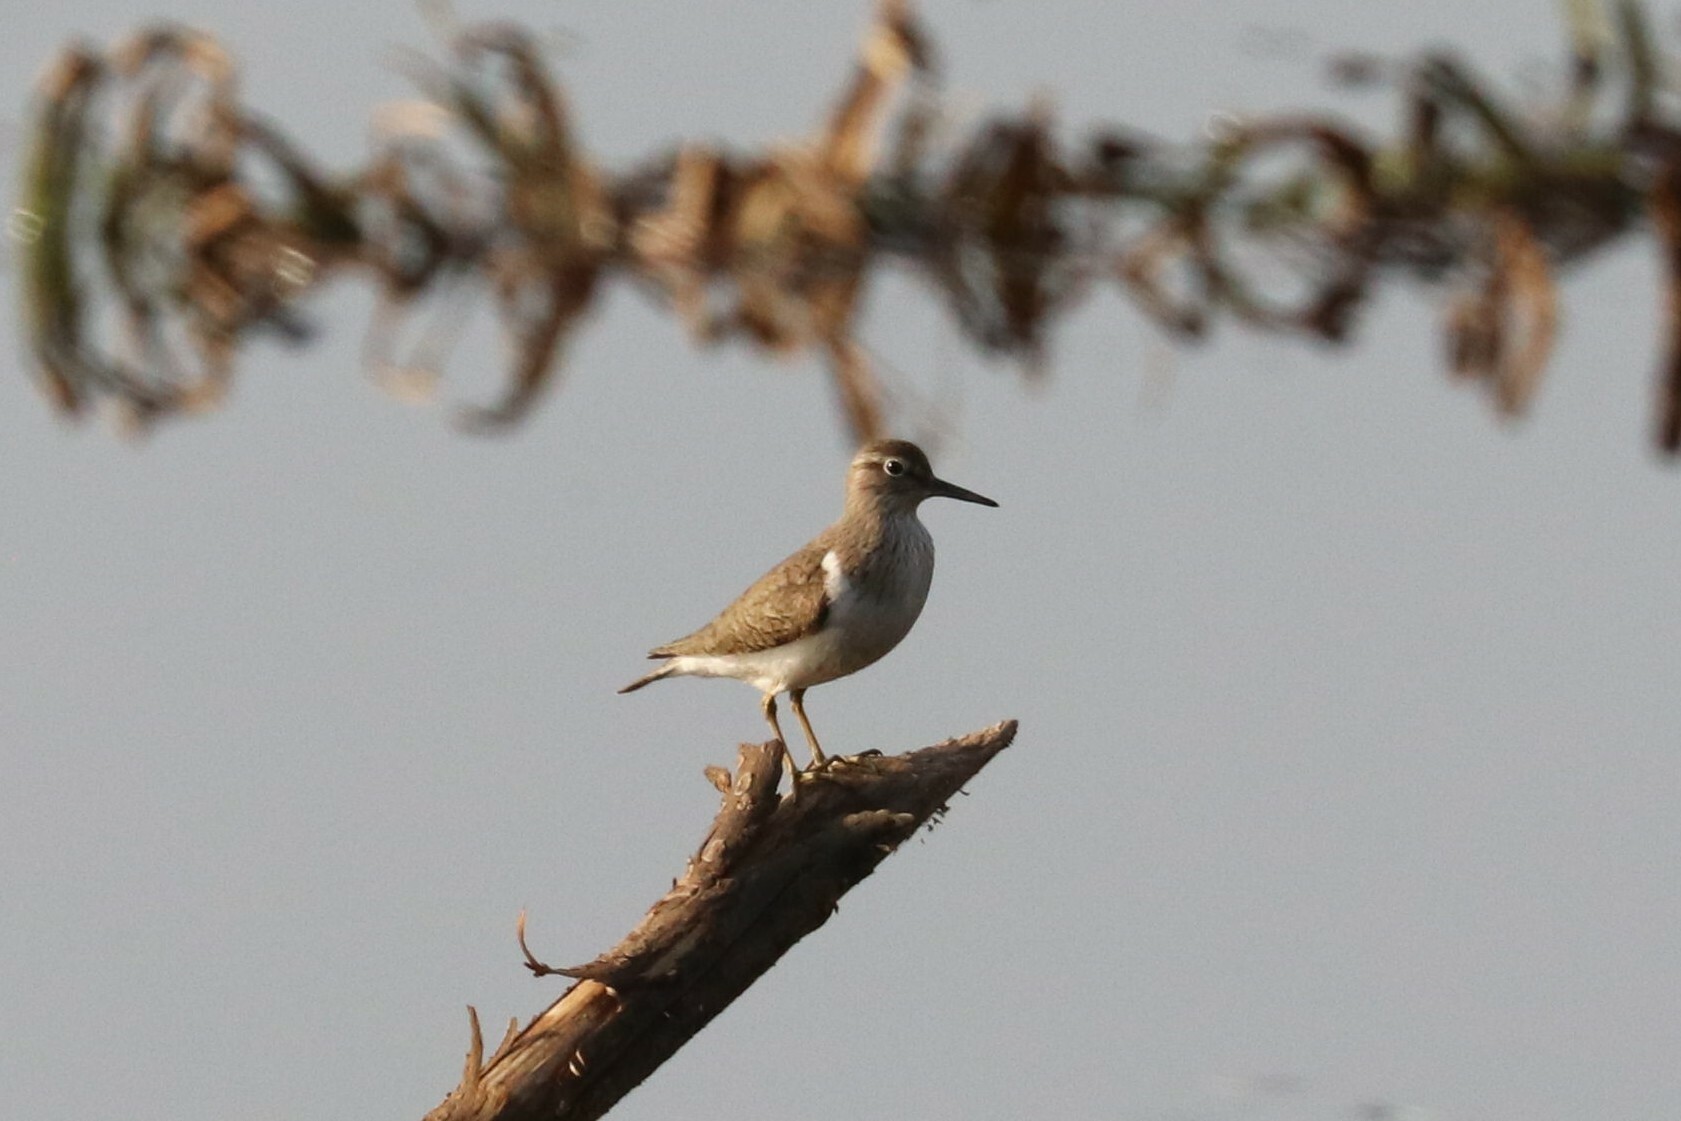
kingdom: Animalia
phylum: Chordata
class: Aves
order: Charadriiformes
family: Scolopacidae
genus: Actitis
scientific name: Actitis hypoleucos
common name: Common sandpiper
